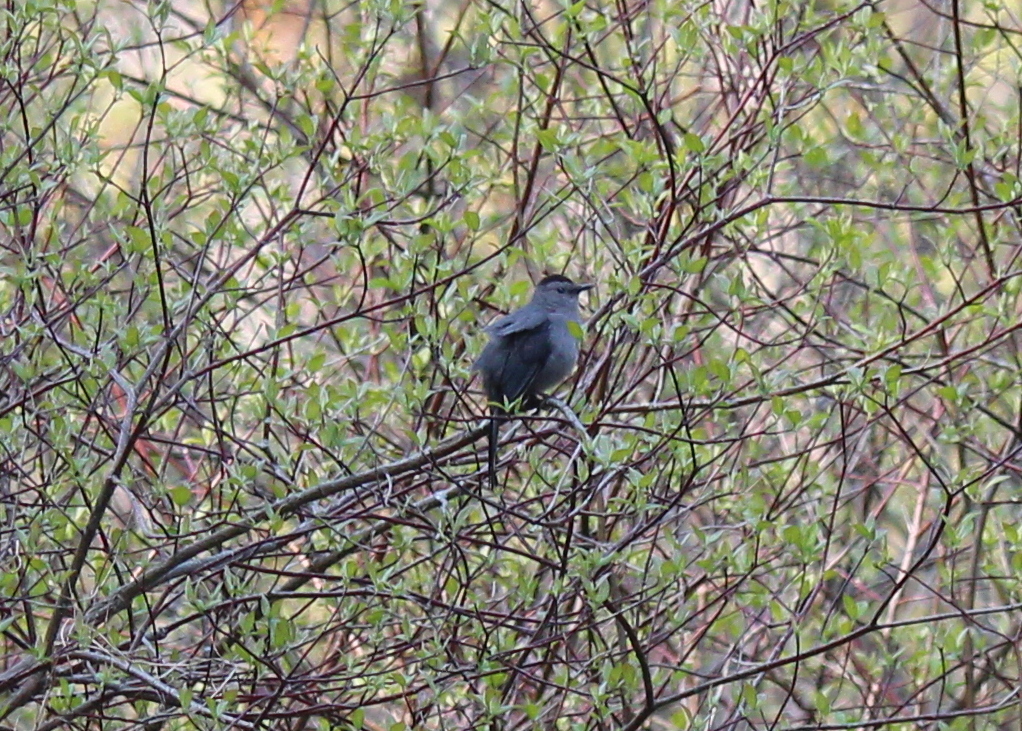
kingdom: Animalia
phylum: Chordata
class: Aves
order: Passeriformes
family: Mimidae
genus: Dumetella
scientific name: Dumetella carolinensis
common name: Gray catbird
